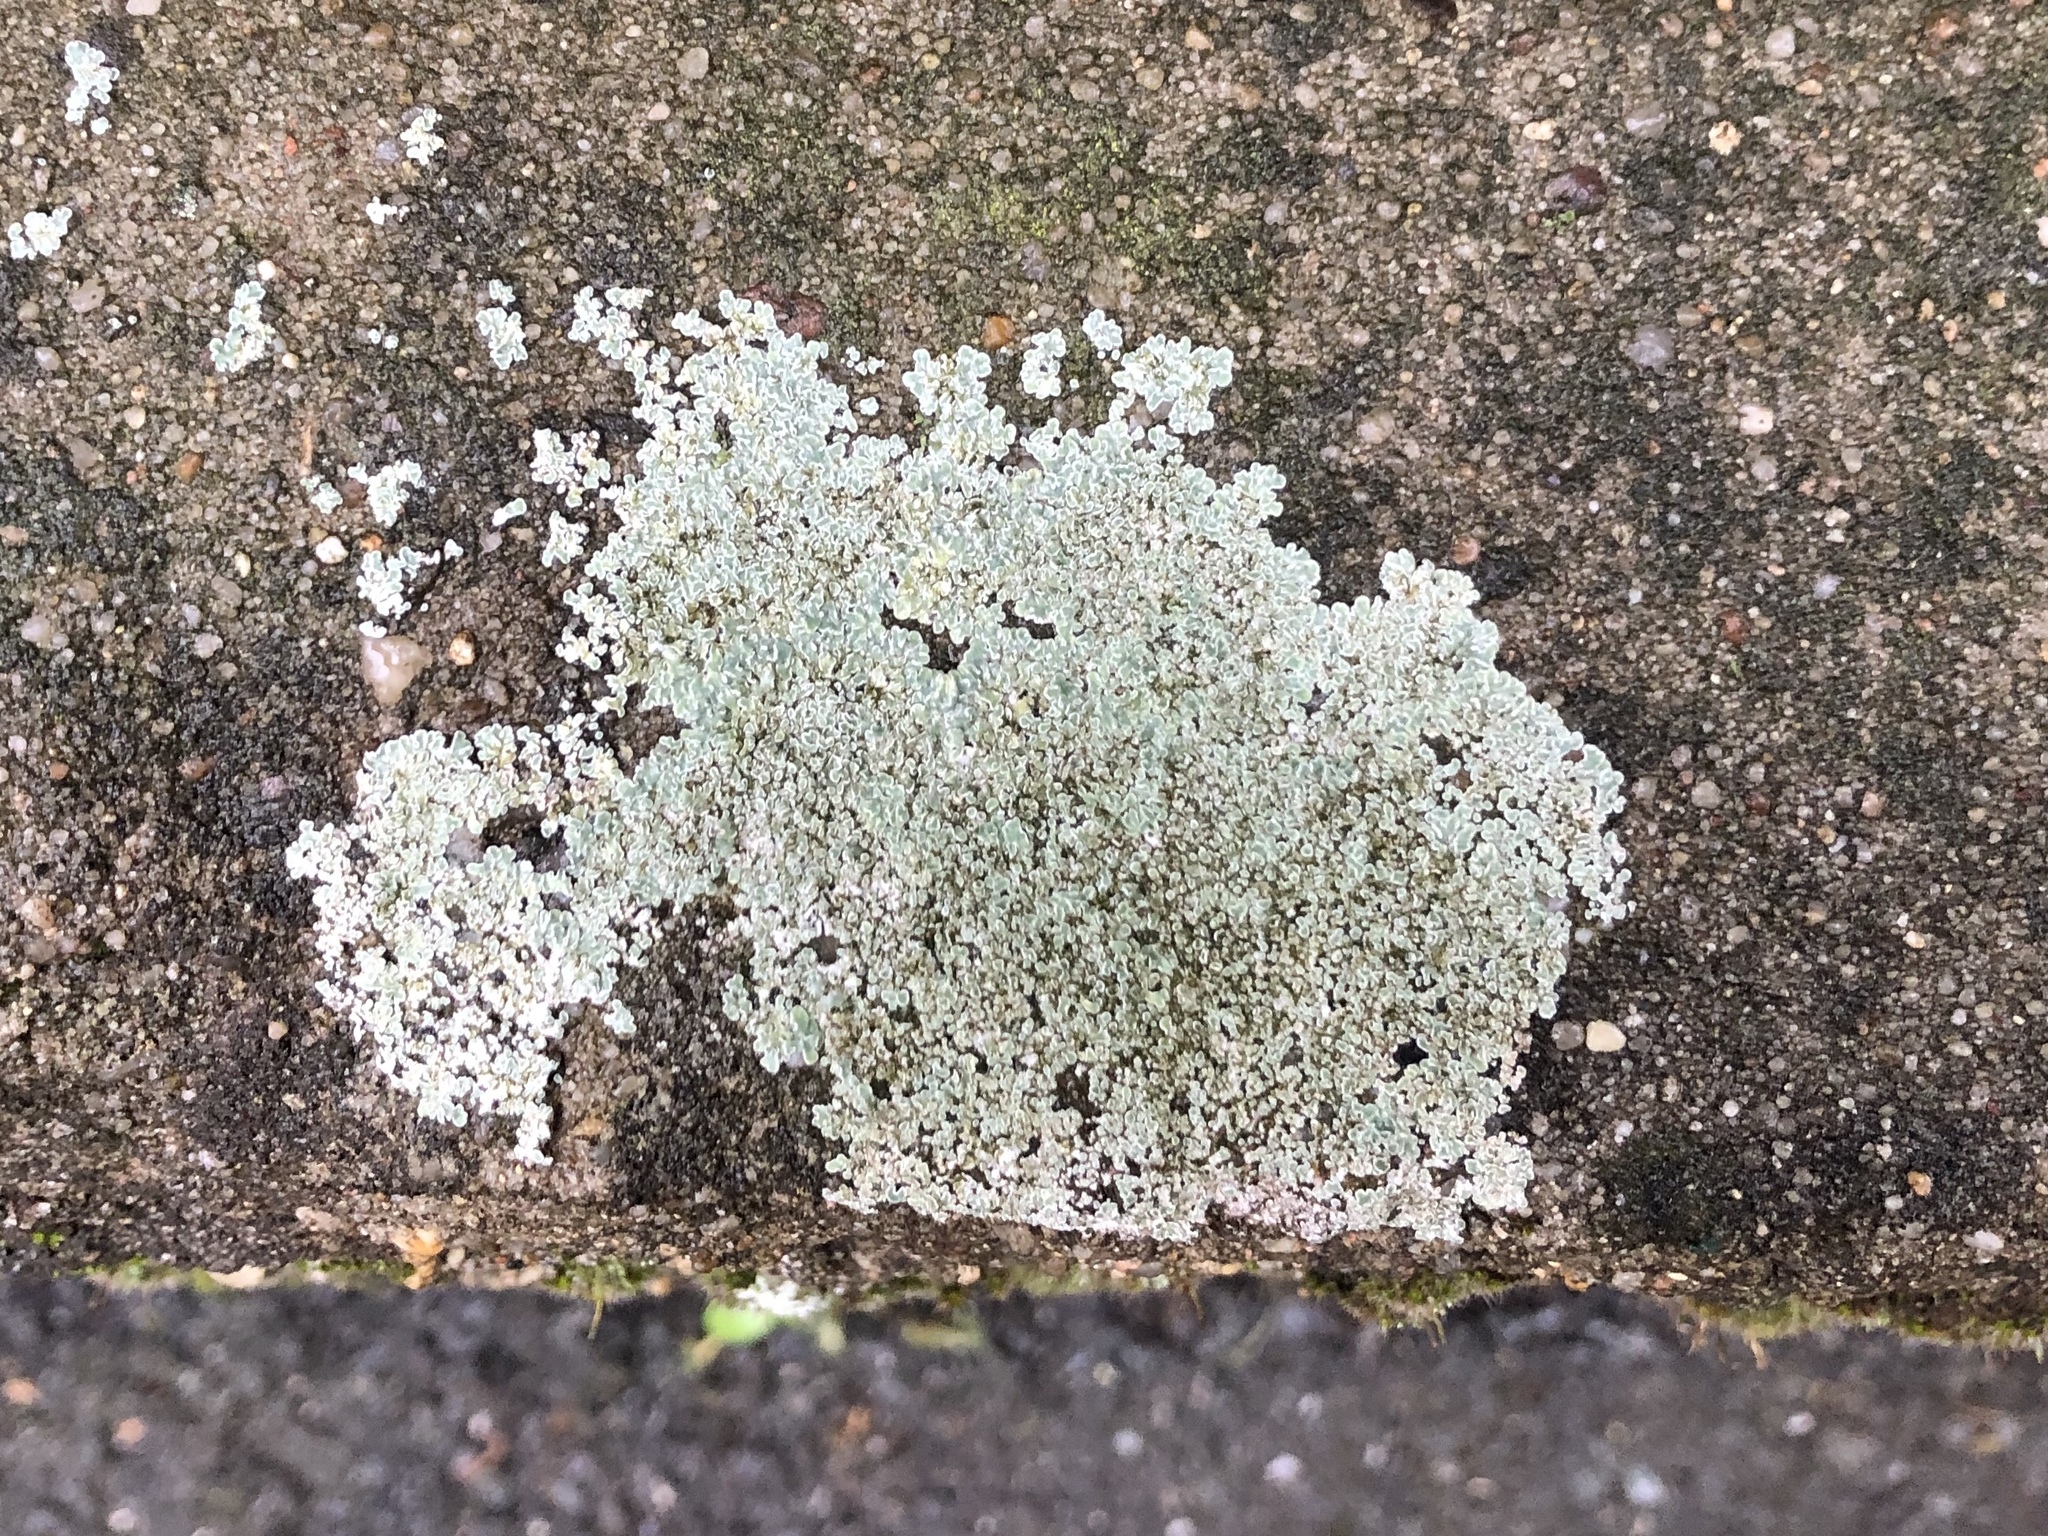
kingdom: Fungi
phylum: Ascomycota
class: Lecanoromycetes
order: Lecanorales
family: Lecanoraceae
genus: Protoparmeliopsis
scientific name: Protoparmeliopsis muralis
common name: Stonewall rim lichen
